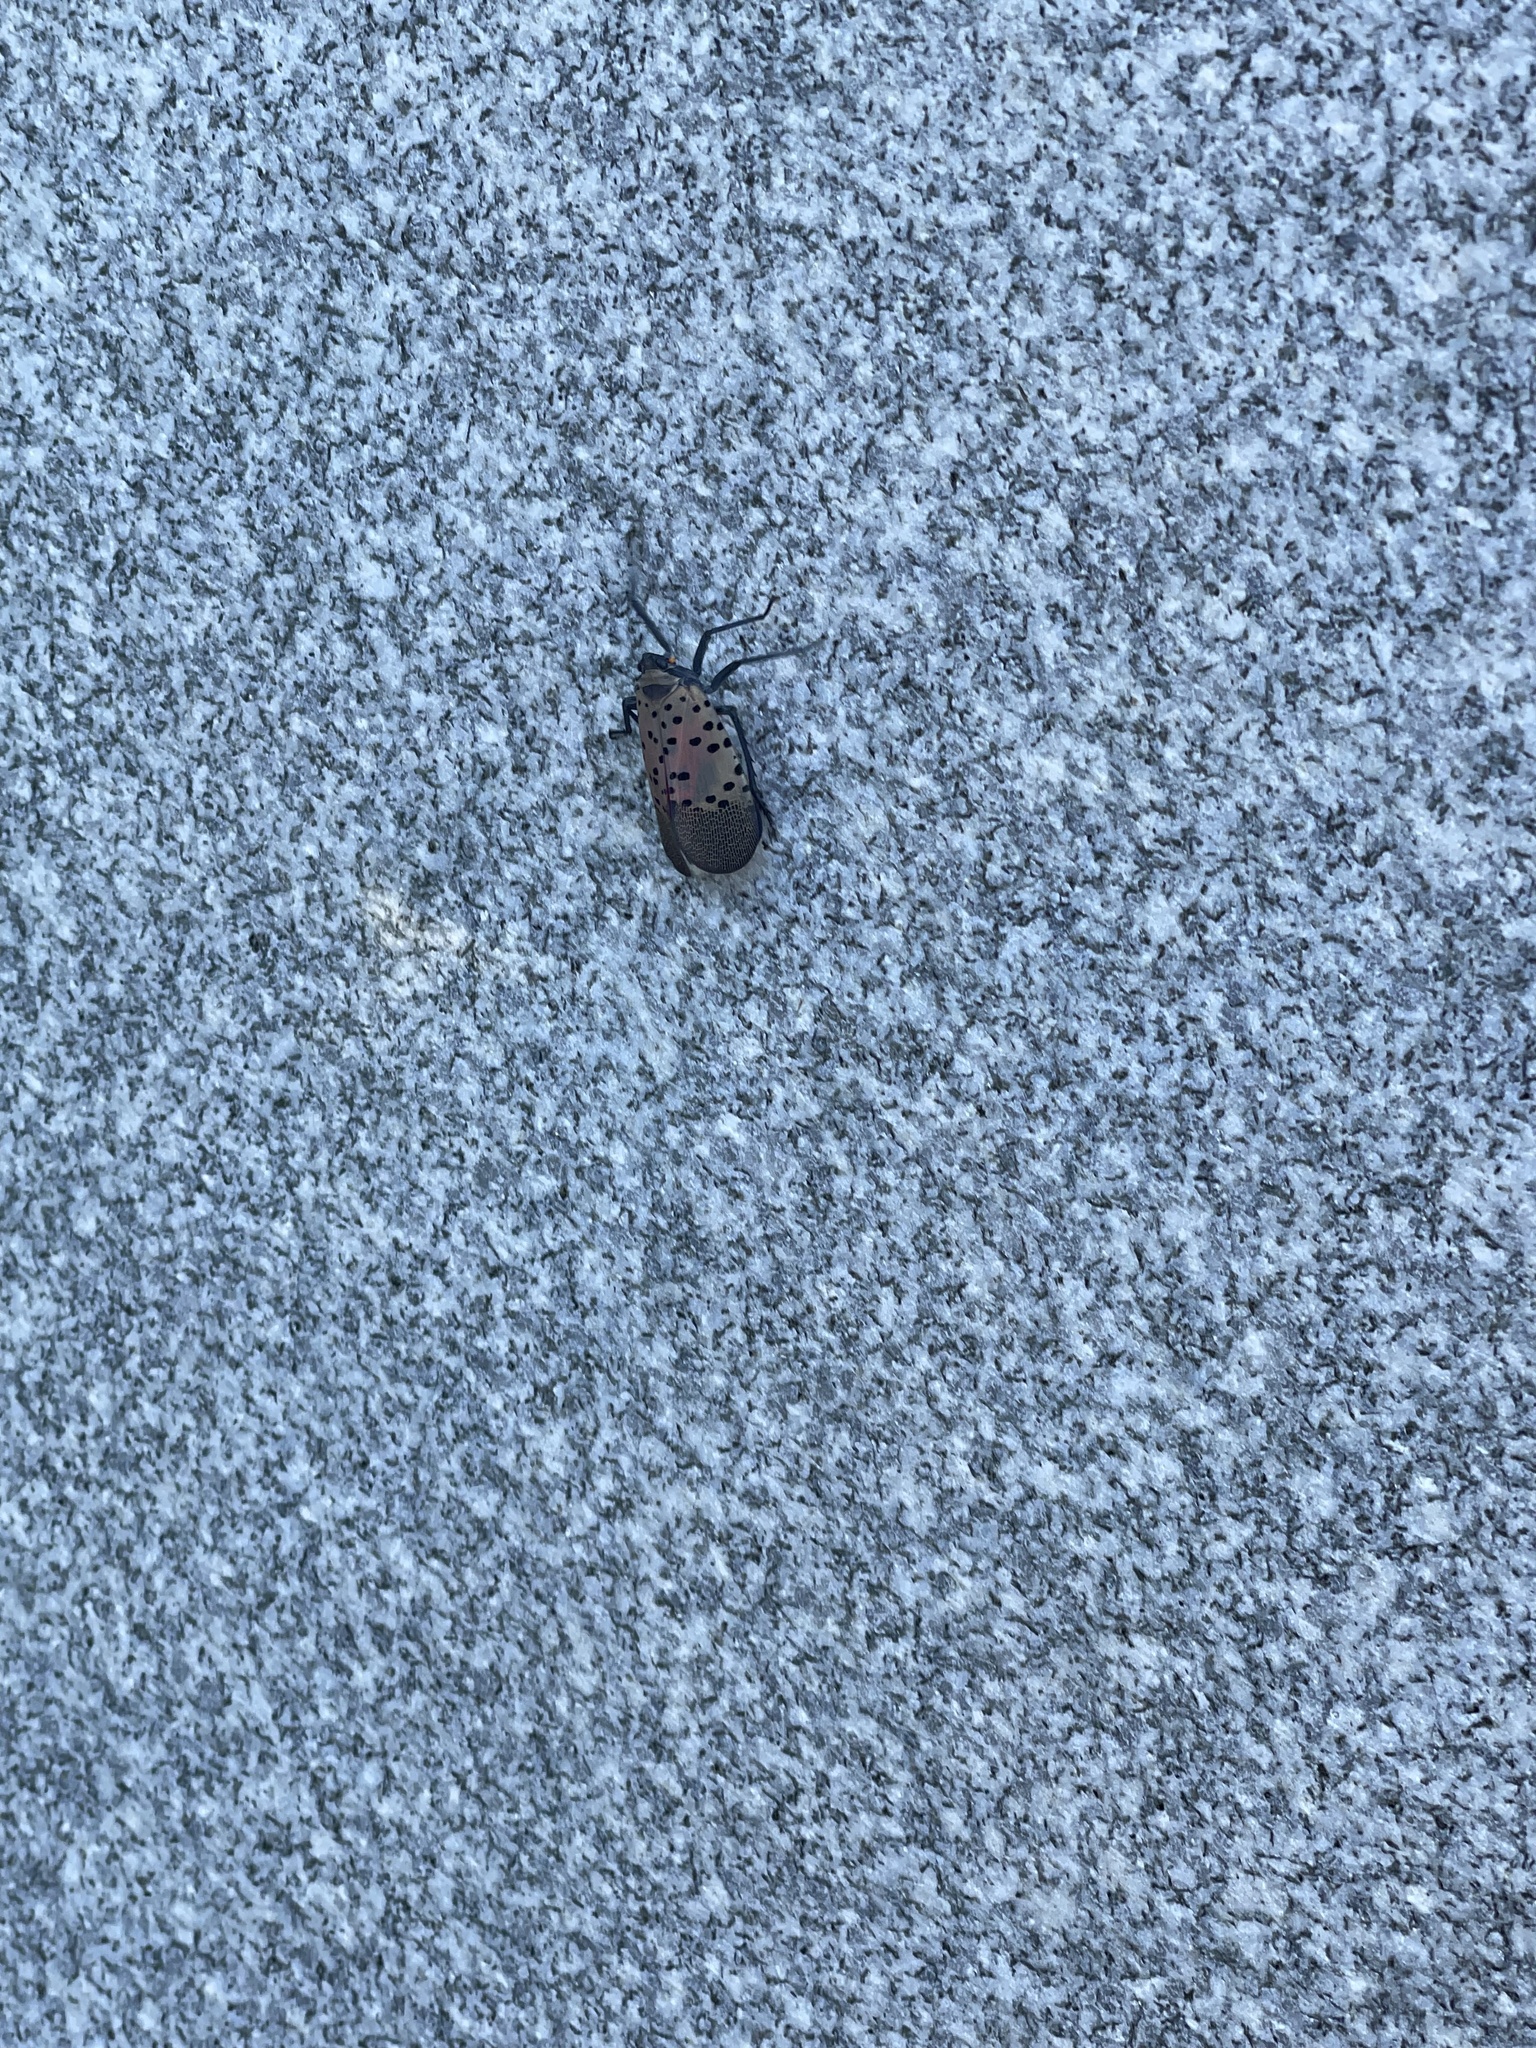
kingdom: Animalia
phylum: Arthropoda
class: Insecta
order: Hemiptera
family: Fulgoridae
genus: Lycorma
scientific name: Lycorma delicatula
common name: Spotted lanternfly
